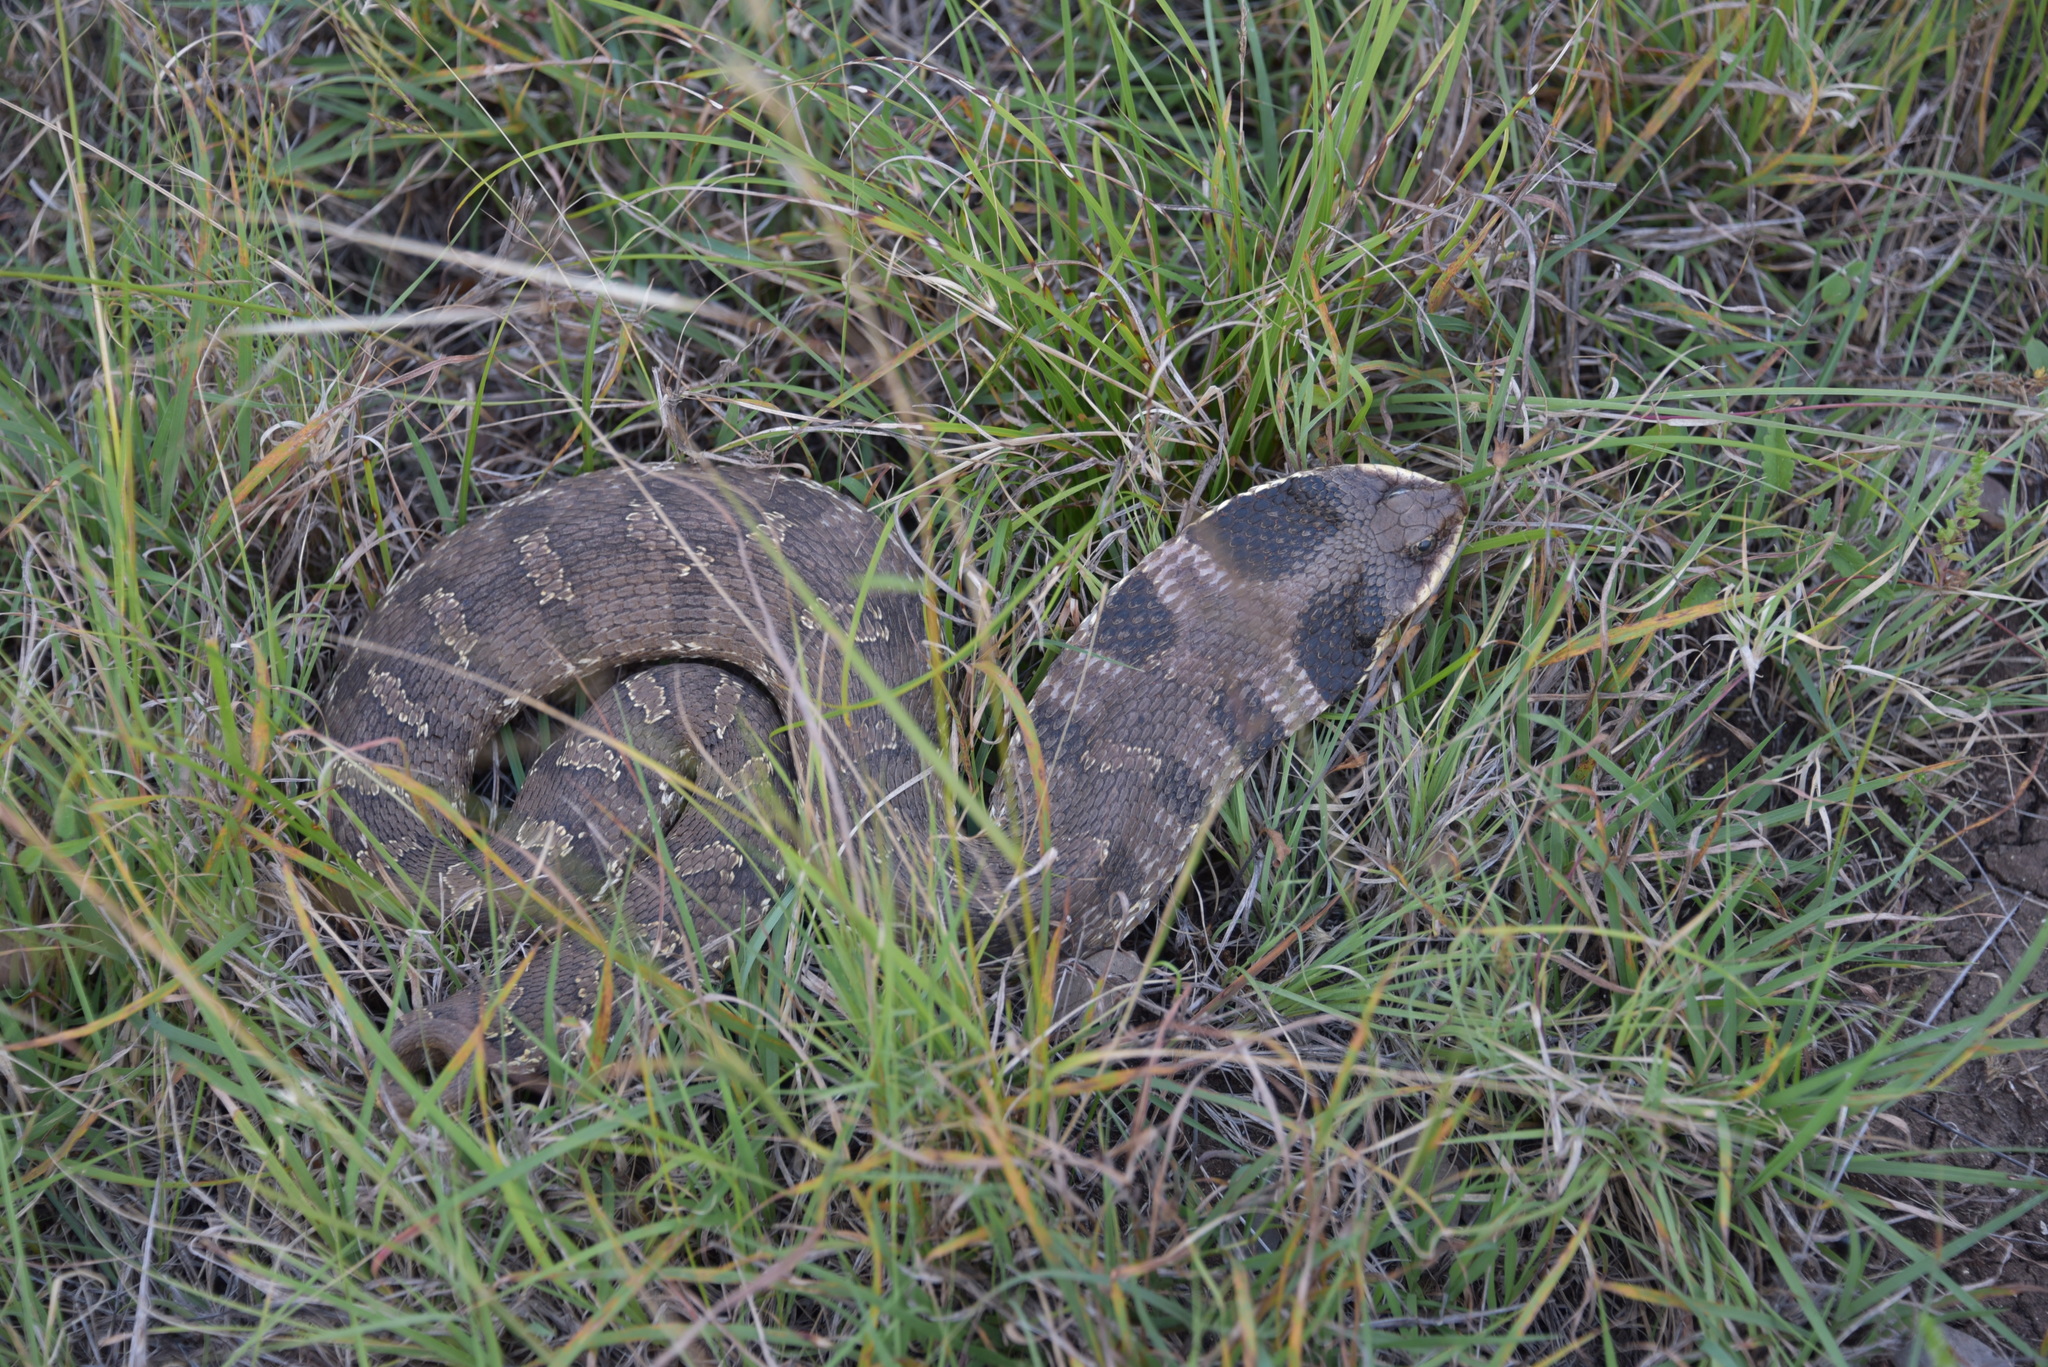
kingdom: Animalia
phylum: Chordata
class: Squamata
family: Colubridae
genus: Heterodon
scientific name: Heterodon platirhinos
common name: Eastern hognose snake
